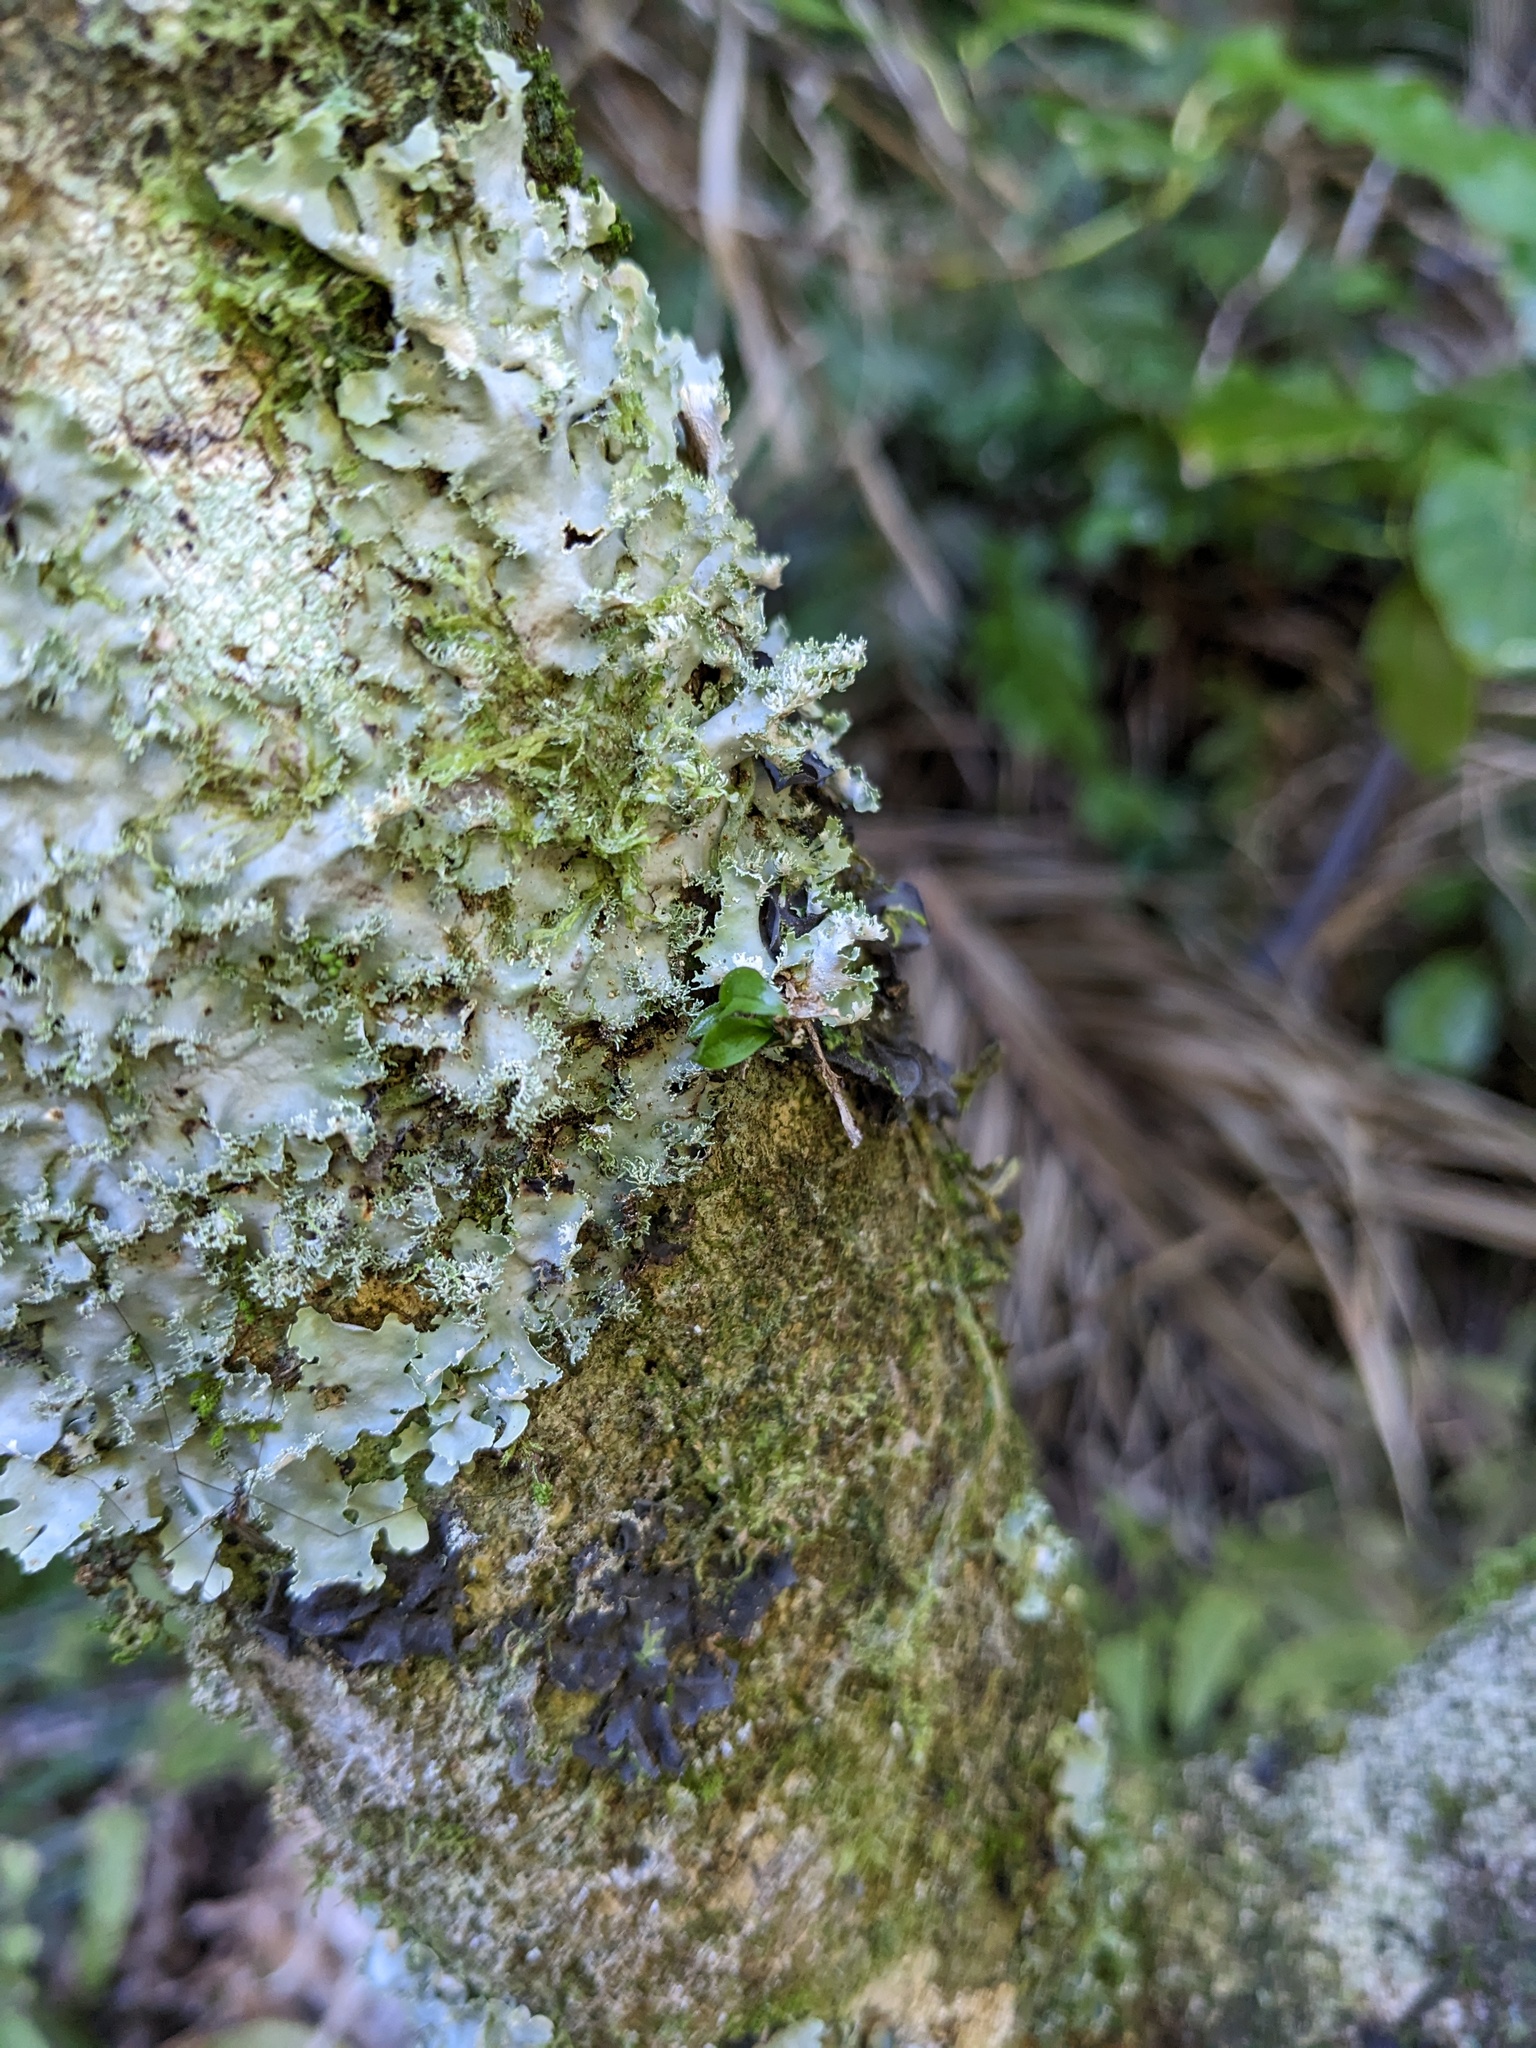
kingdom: Plantae
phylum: Tracheophyta
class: Liliopsida
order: Asparagales
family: Orchidaceae
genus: Drymoanthus
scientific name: Drymoanthus adversus
